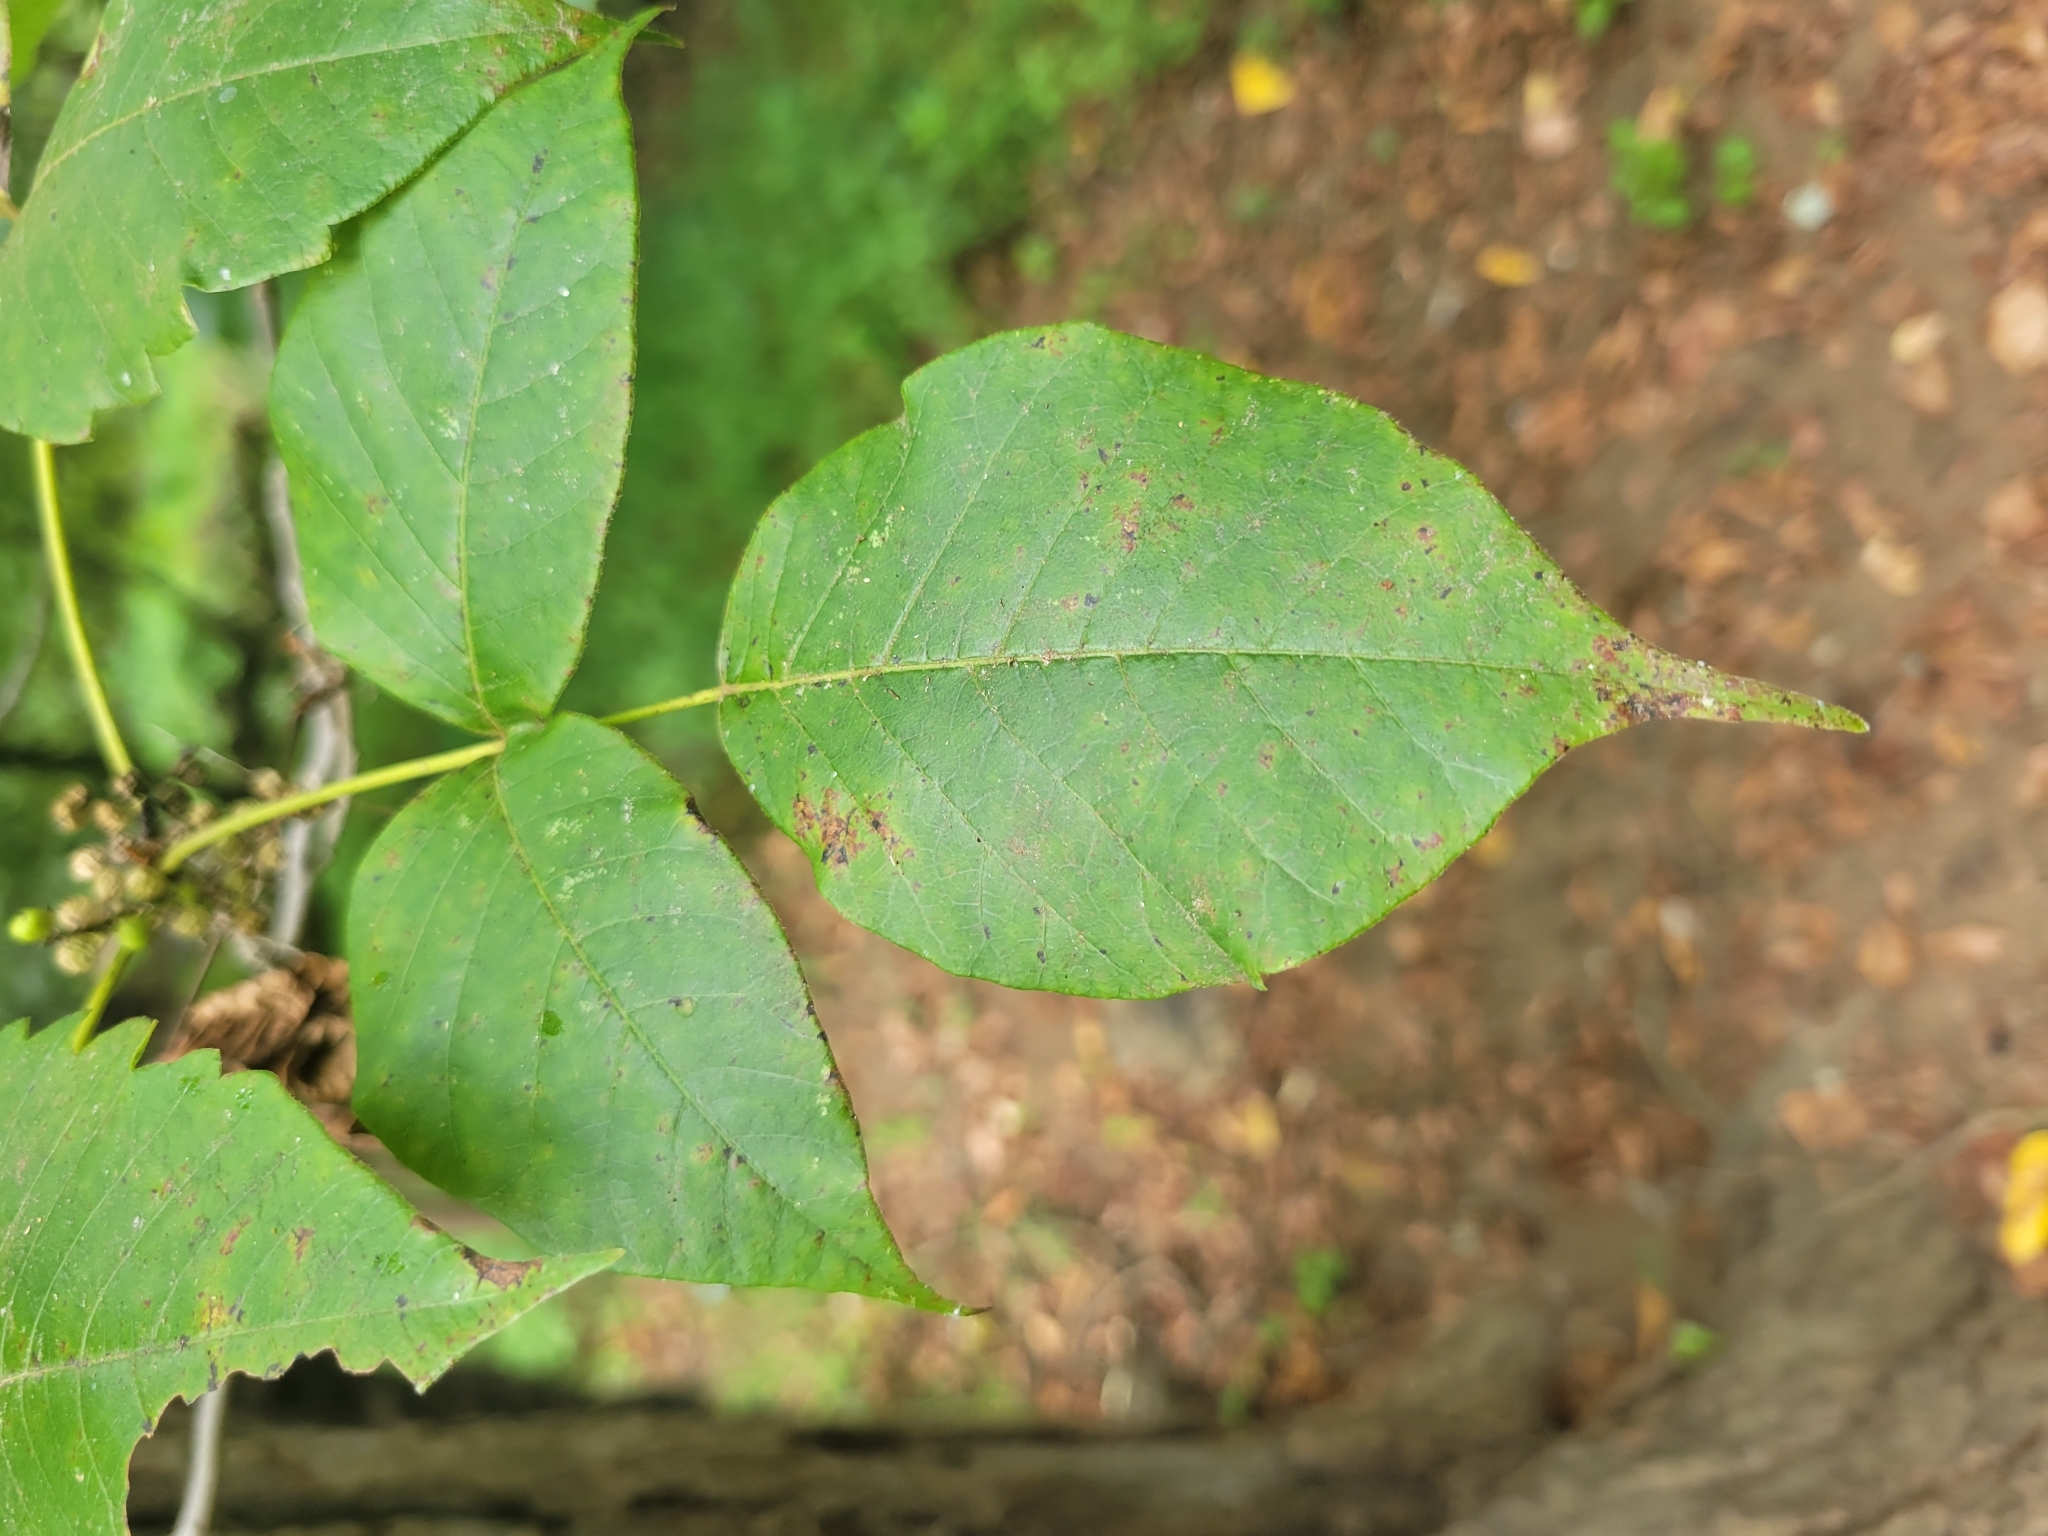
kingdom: Plantae
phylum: Tracheophyta
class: Magnoliopsida
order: Sapindales
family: Anacardiaceae
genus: Toxicodendron
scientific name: Toxicodendron radicans
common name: Poison ivy
